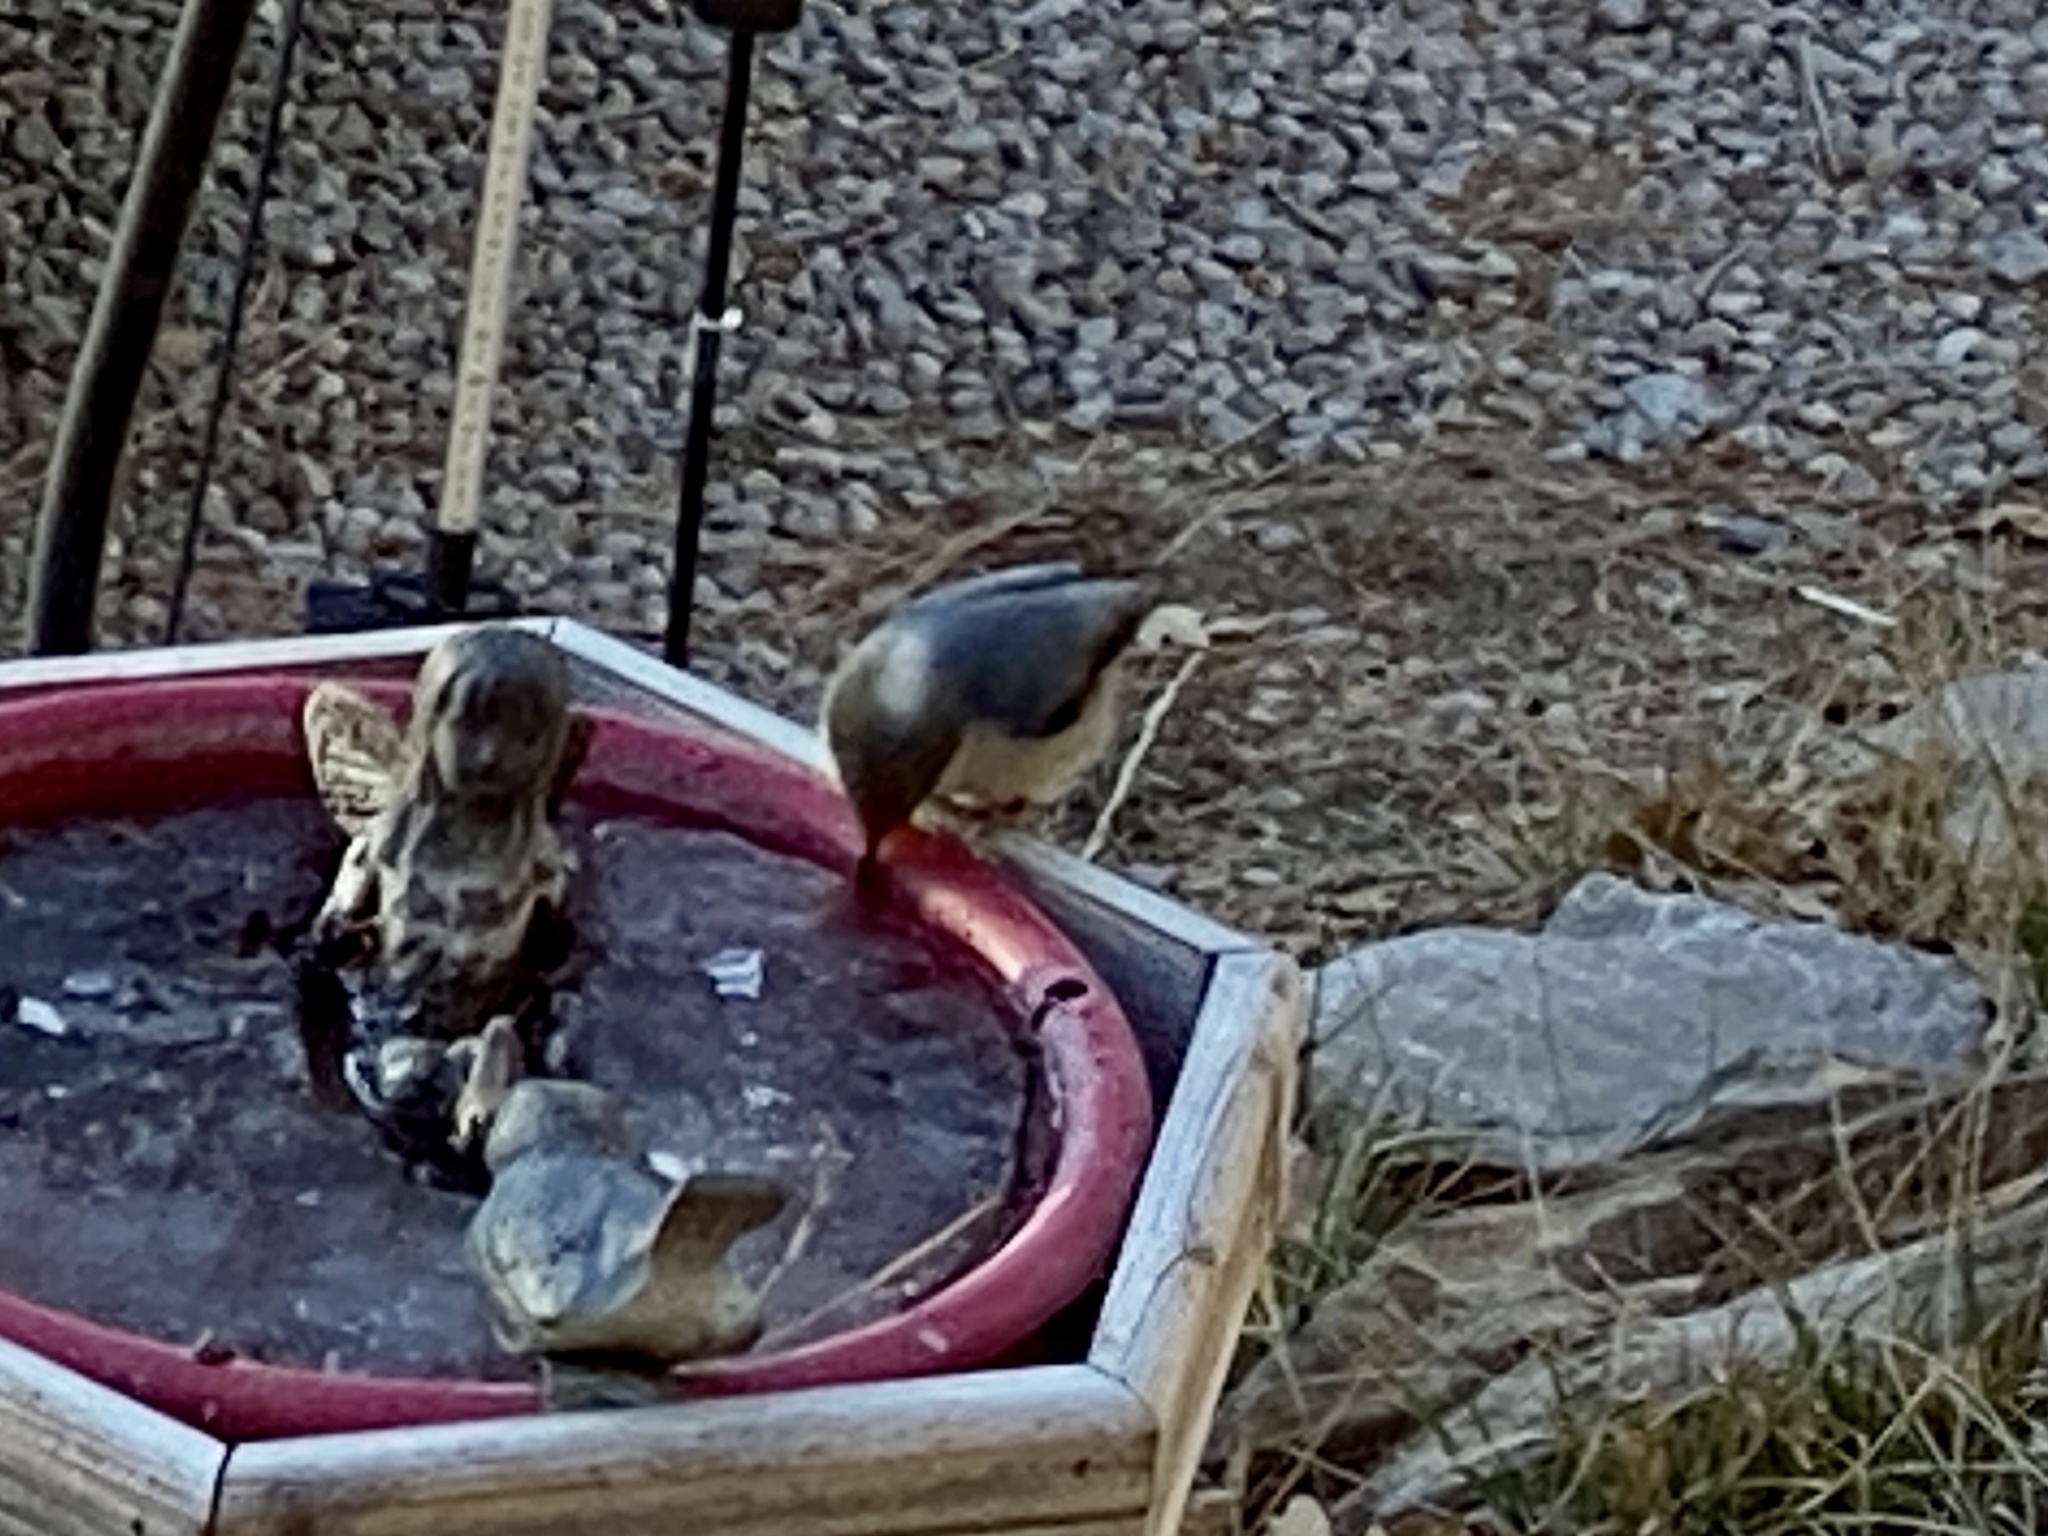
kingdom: Animalia
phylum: Chordata
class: Aves
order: Passeriformes
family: Sittidae
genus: Sitta
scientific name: Sitta pygmaea
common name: Pygmy nuthatch
